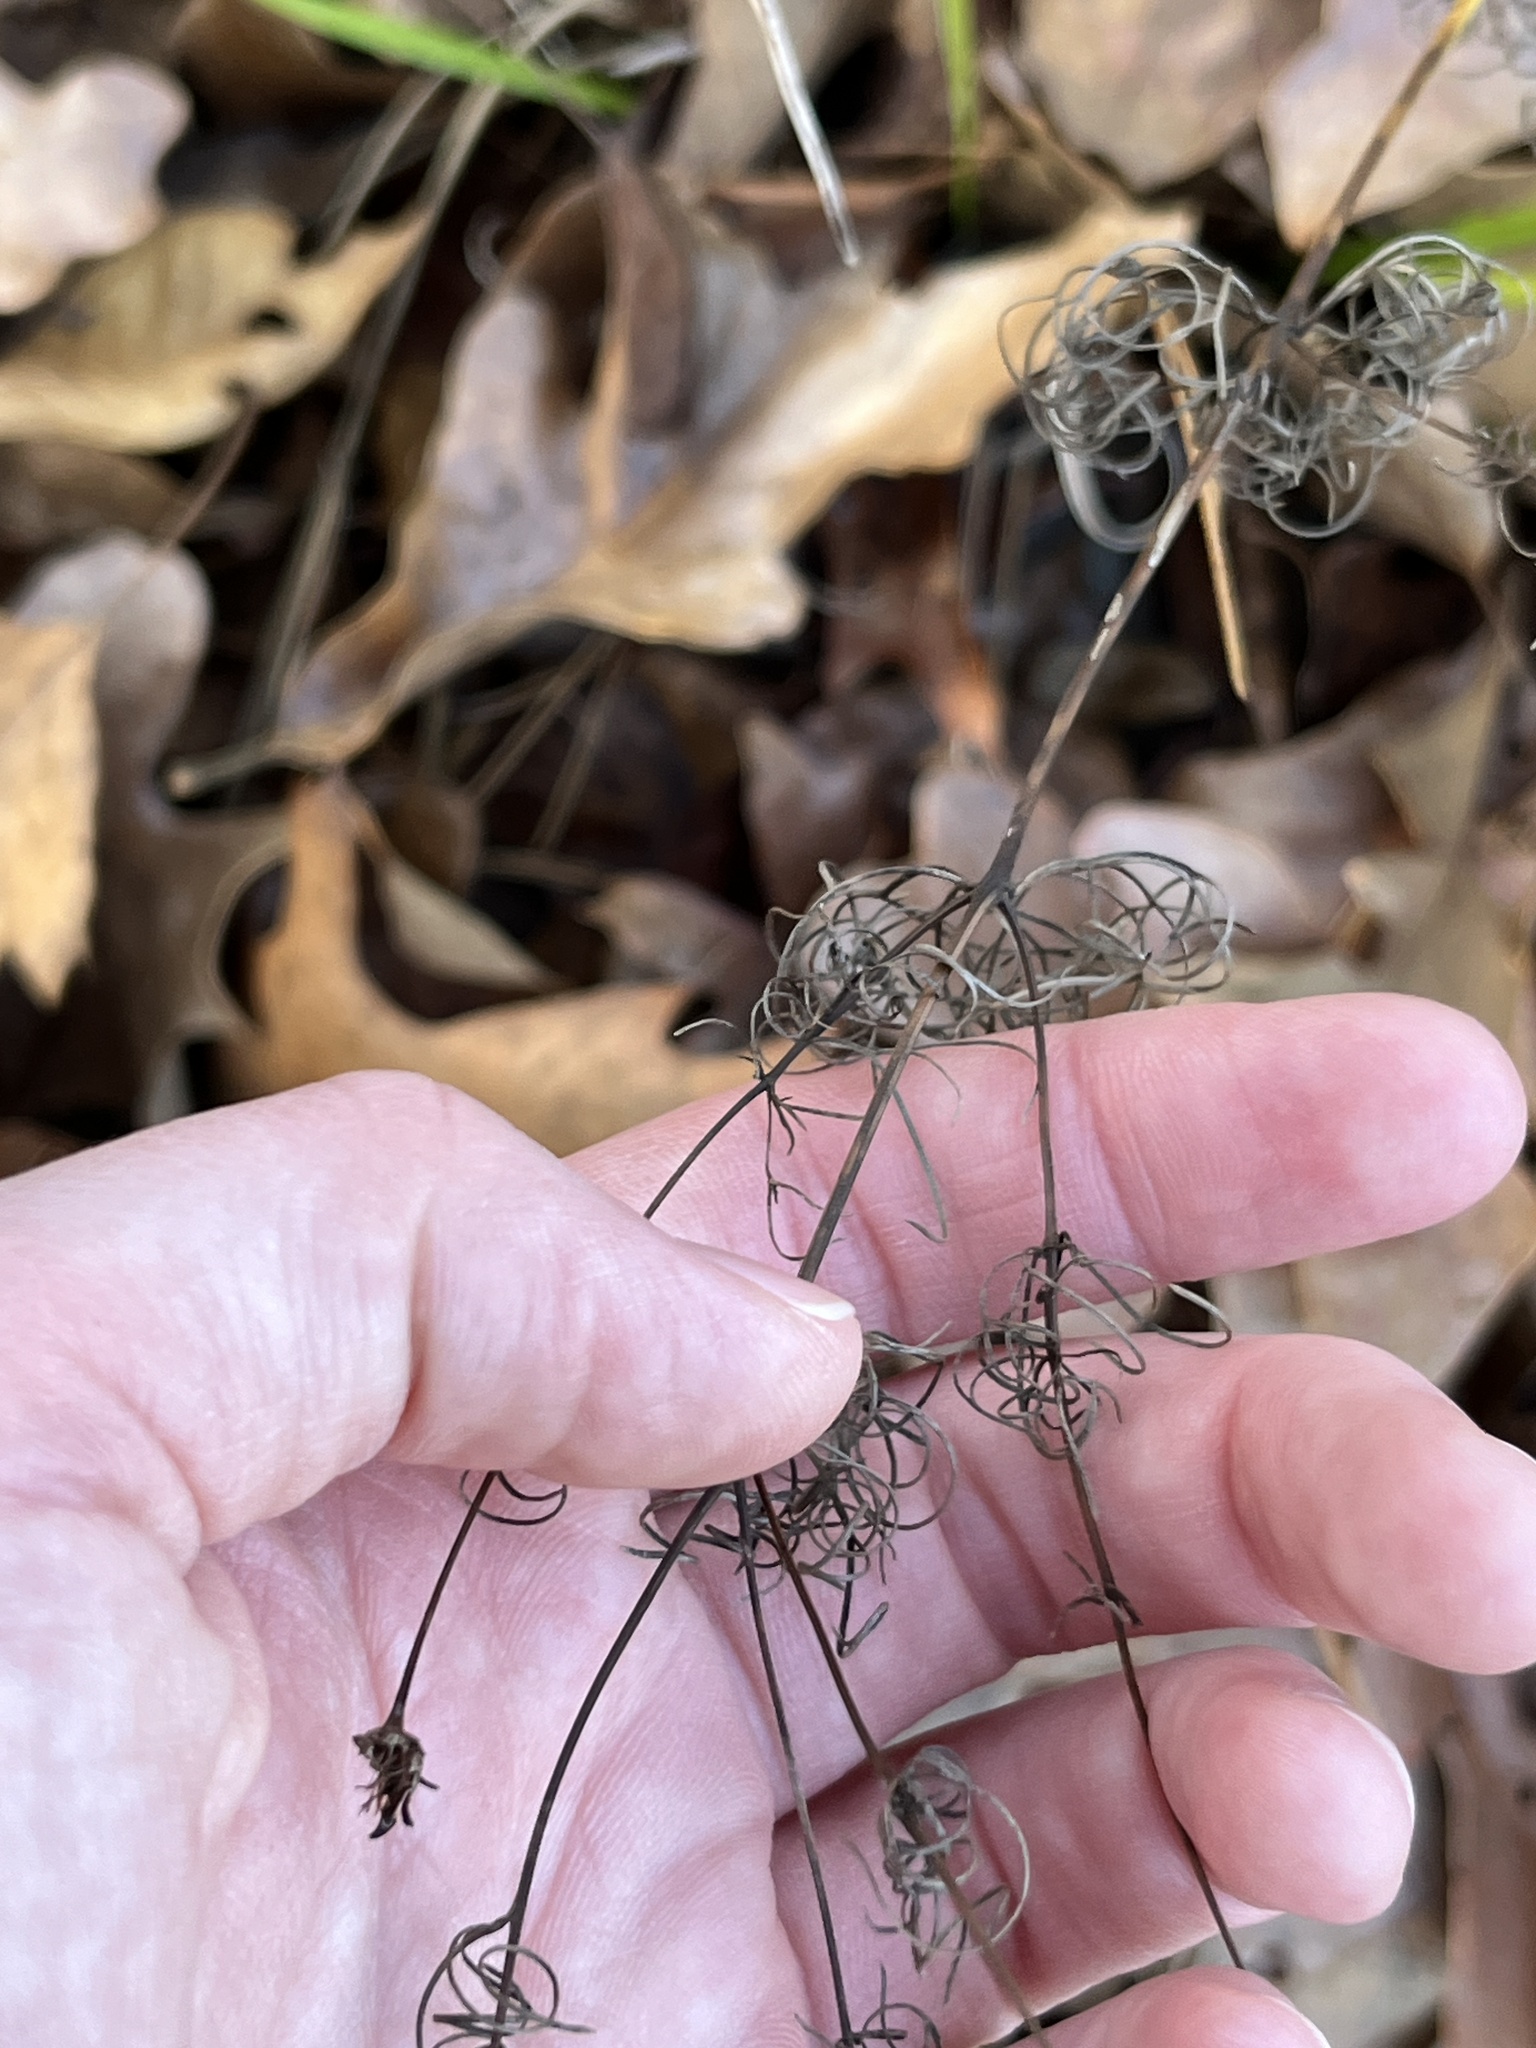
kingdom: Plantae
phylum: Tracheophyta
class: Magnoliopsida
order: Asterales
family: Asteraceae
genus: Coreopsis
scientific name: Coreopsis verticillata
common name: Whorled tickseed
